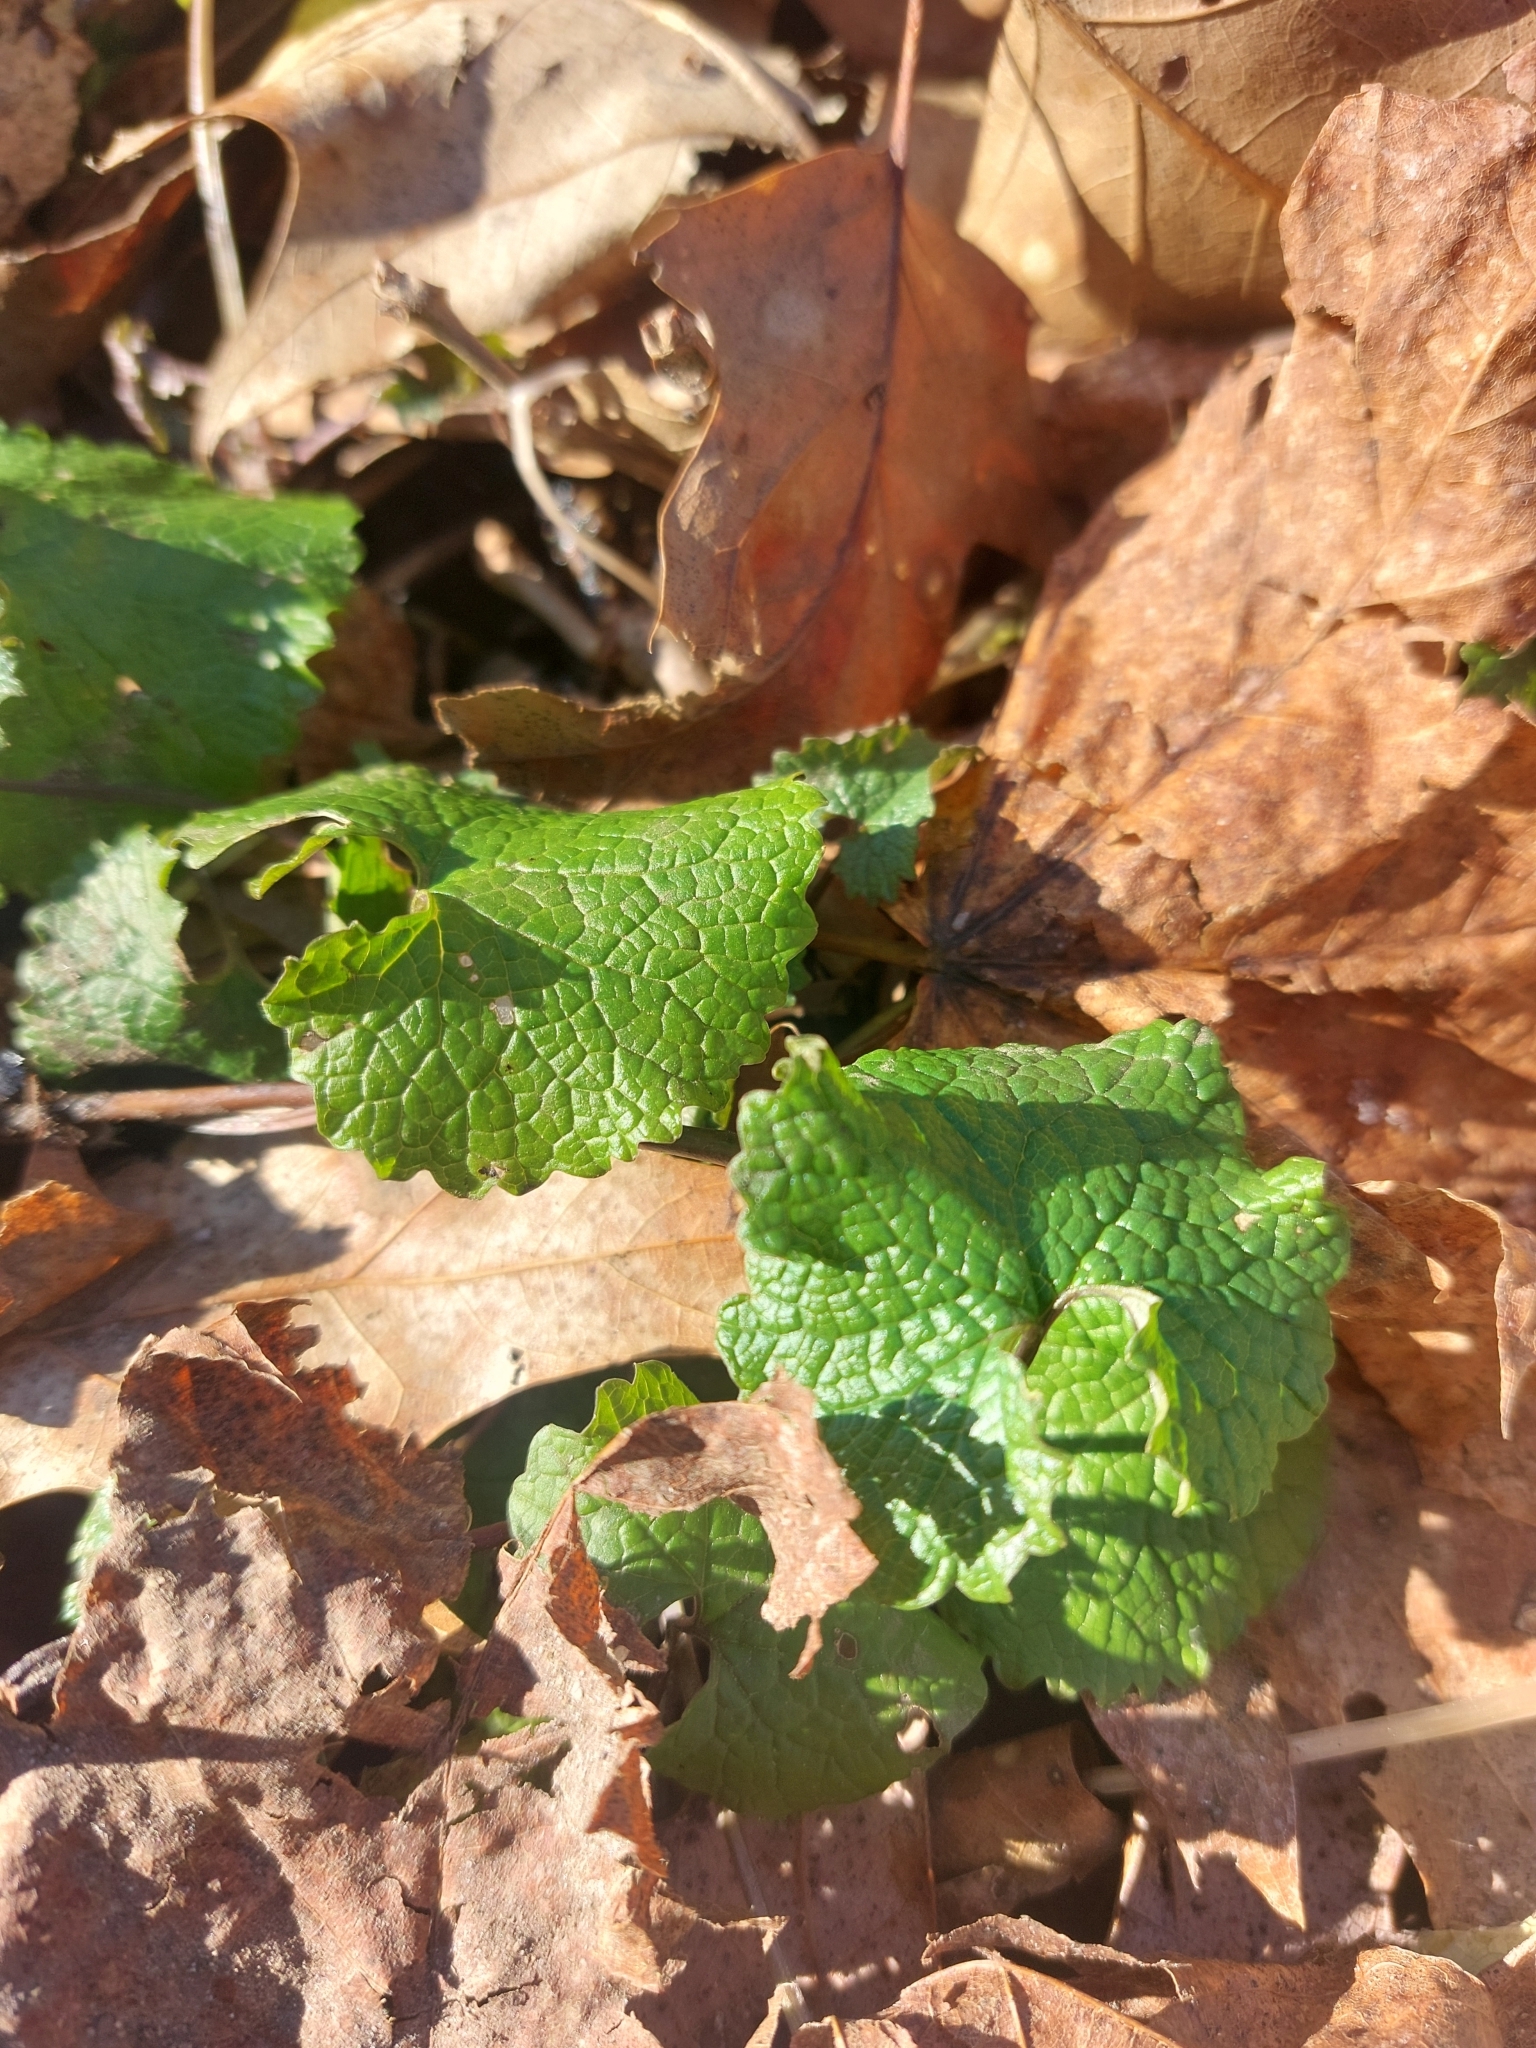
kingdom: Plantae
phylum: Tracheophyta
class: Magnoliopsida
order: Brassicales
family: Brassicaceae
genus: Alliaria
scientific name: Alliaria petiolata
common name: Garlic mustard
